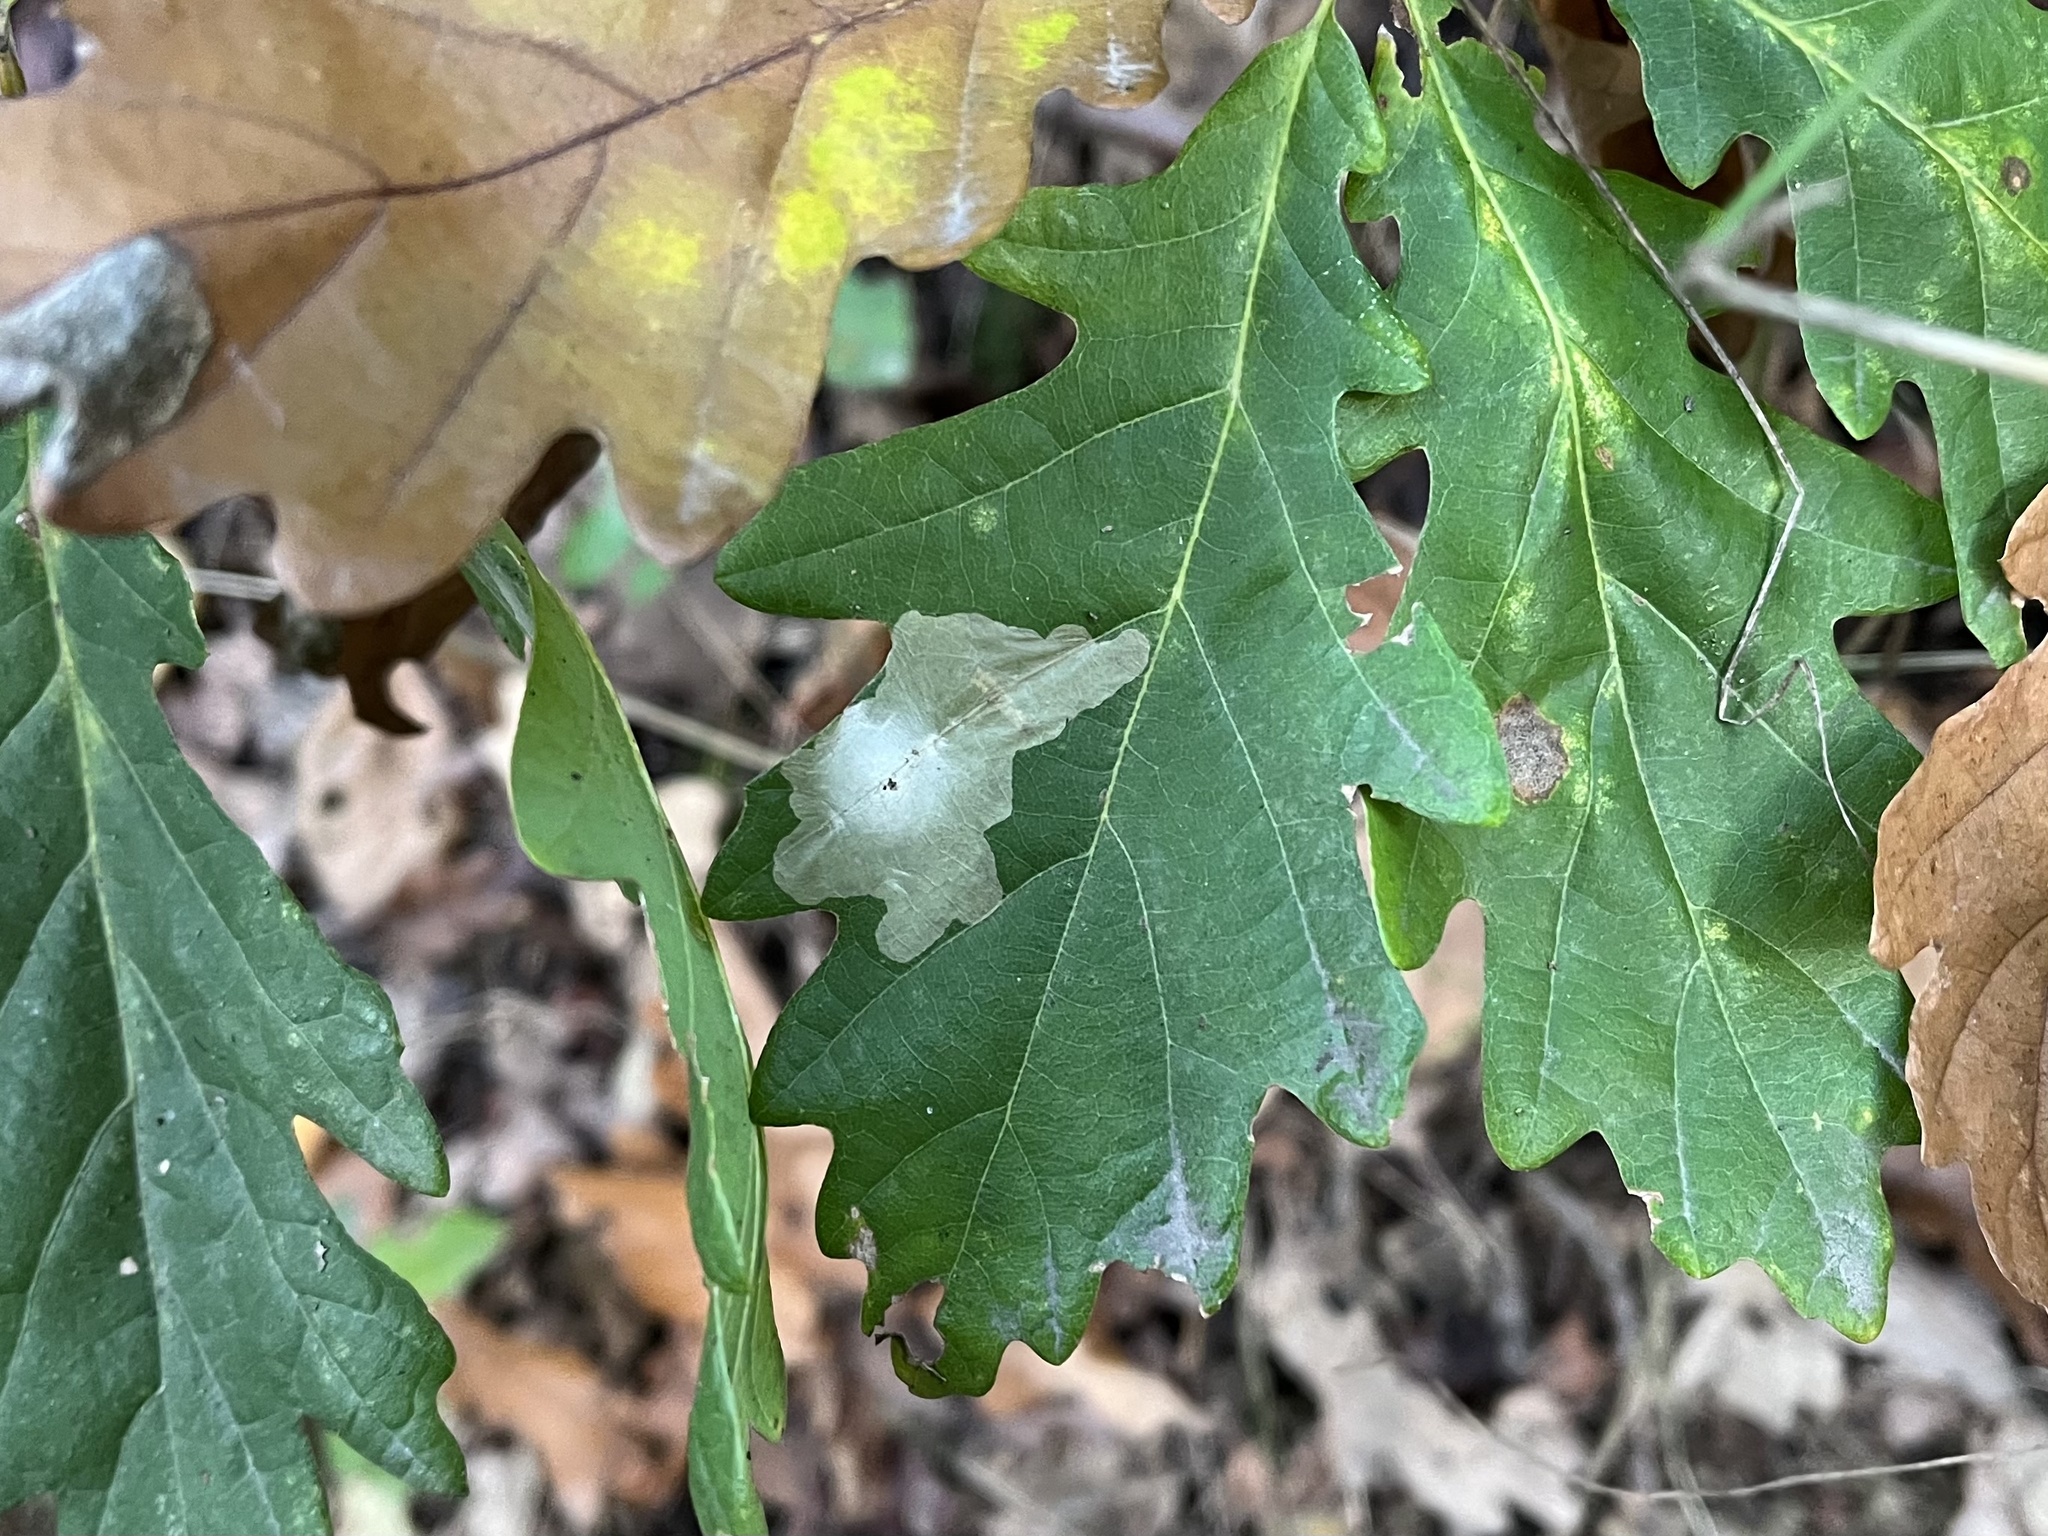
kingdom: Animalia
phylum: Arthropoda
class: Insecta
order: Lepidoptera
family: Tischeriidae
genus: Tischeria
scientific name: Tischeria ekebladella
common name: Oak carl
